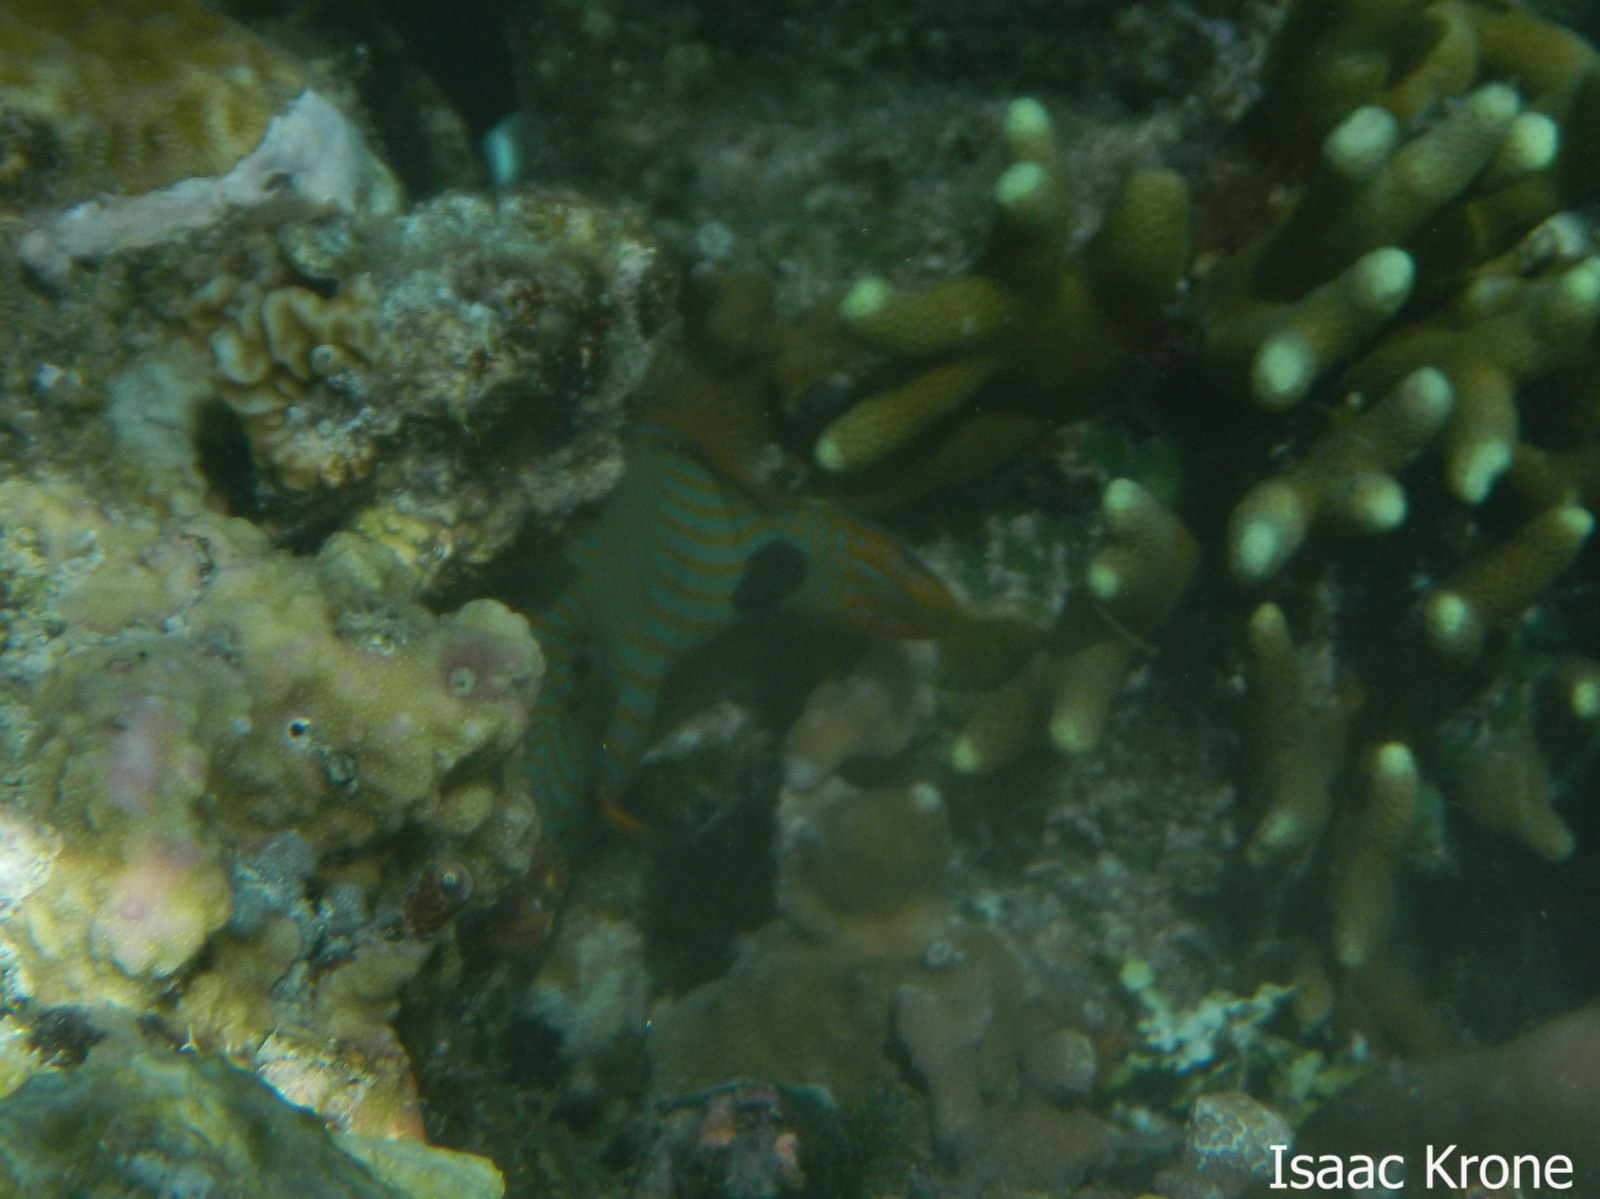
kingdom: Animalia
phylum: Chordata
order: Tetraodontiformes
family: Balistidae
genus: Balistapus
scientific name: Balistapus undulatus
